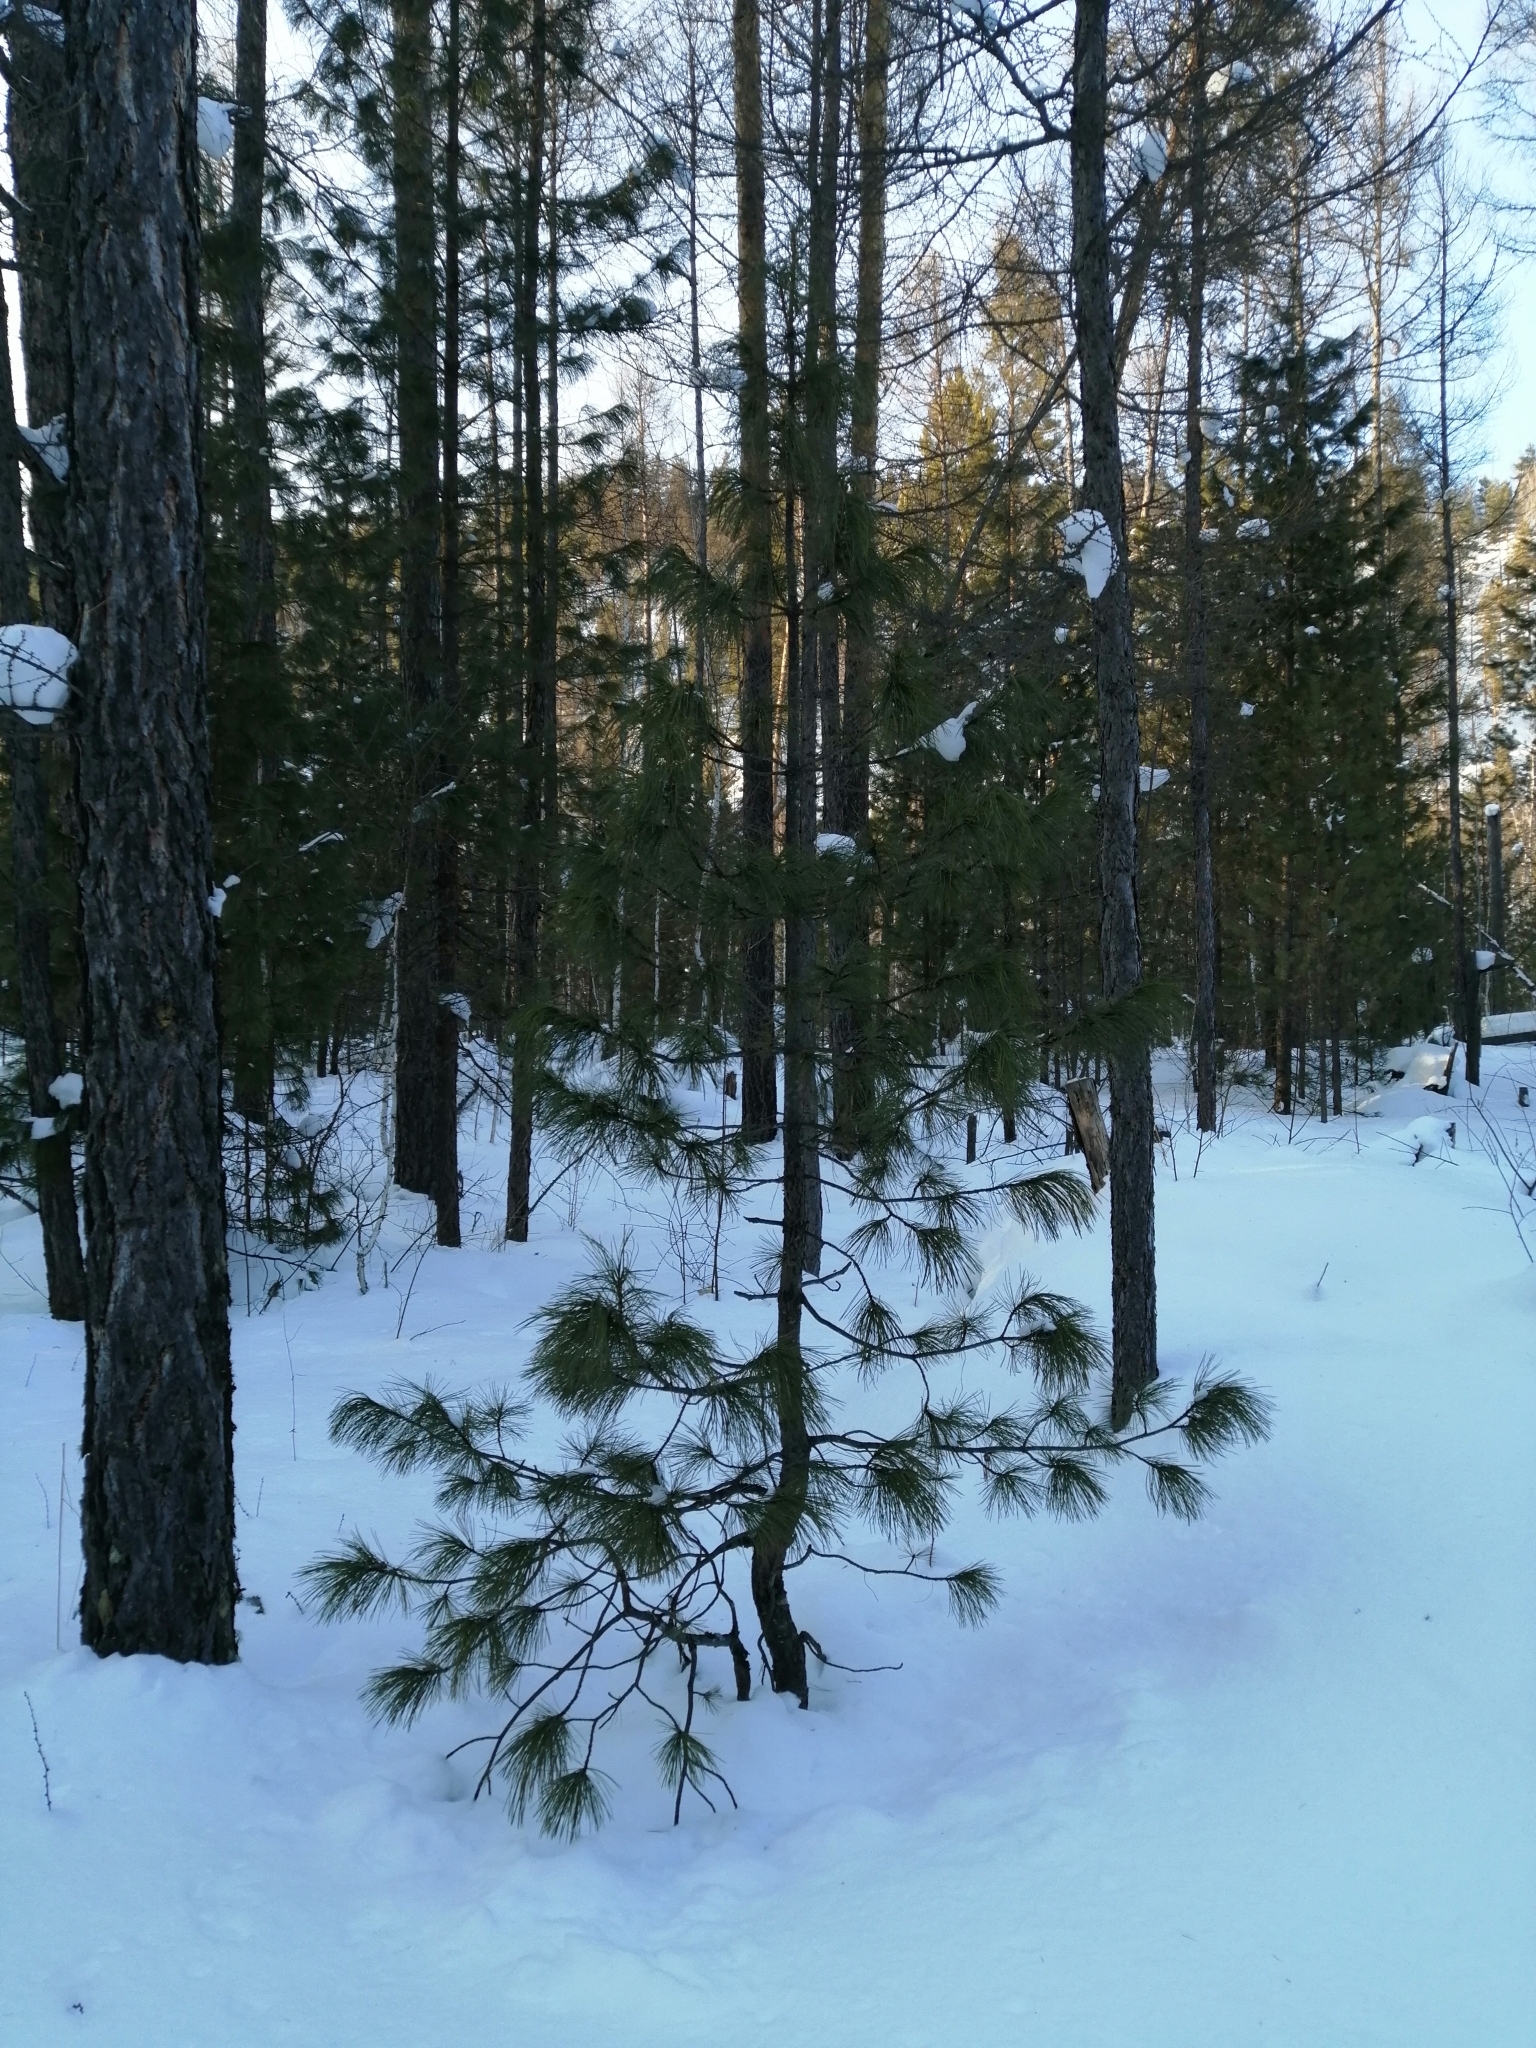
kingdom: Plantae
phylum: Tracheophyta
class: Pinopsida
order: Pinales
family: Pinaceae
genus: Pinus
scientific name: Pinus sibirica
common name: Siberian pine
